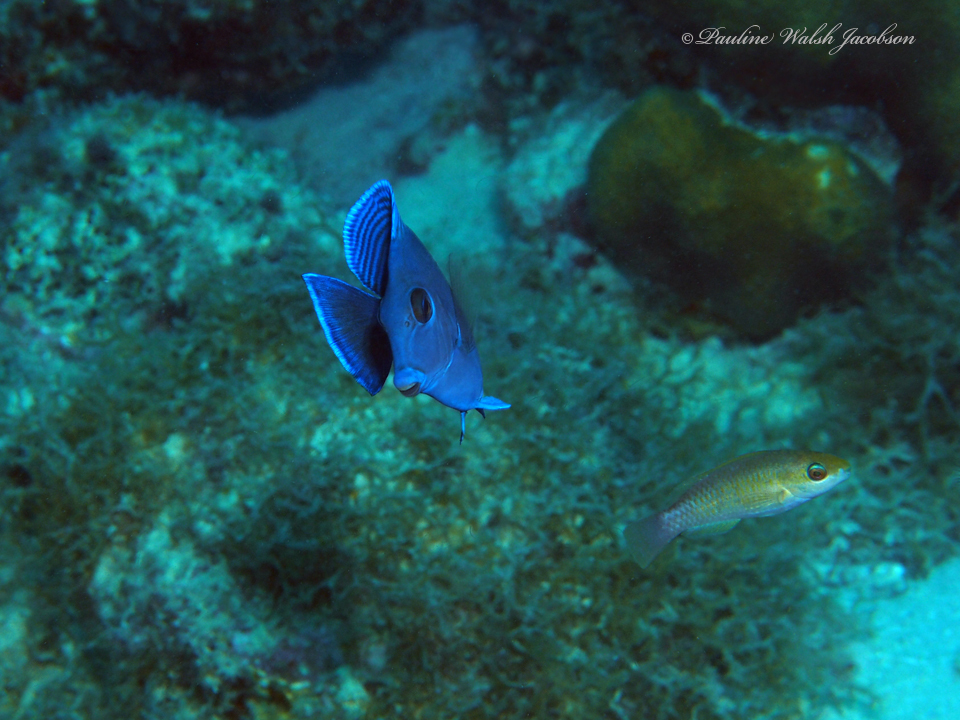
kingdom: Animalia
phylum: Chordata
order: Perciformes
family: Acanthuridae
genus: Acanthurus
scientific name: Acanthurus coeruleus
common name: Blue tang
